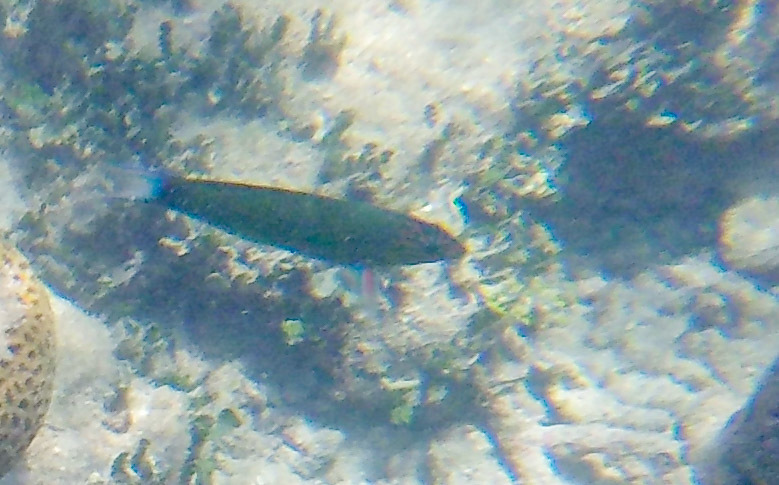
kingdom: Animalia
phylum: Chordata
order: Perciformes
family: Labridae
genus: Thalassoma
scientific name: Thalassoma lunare
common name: Blue wrasse
